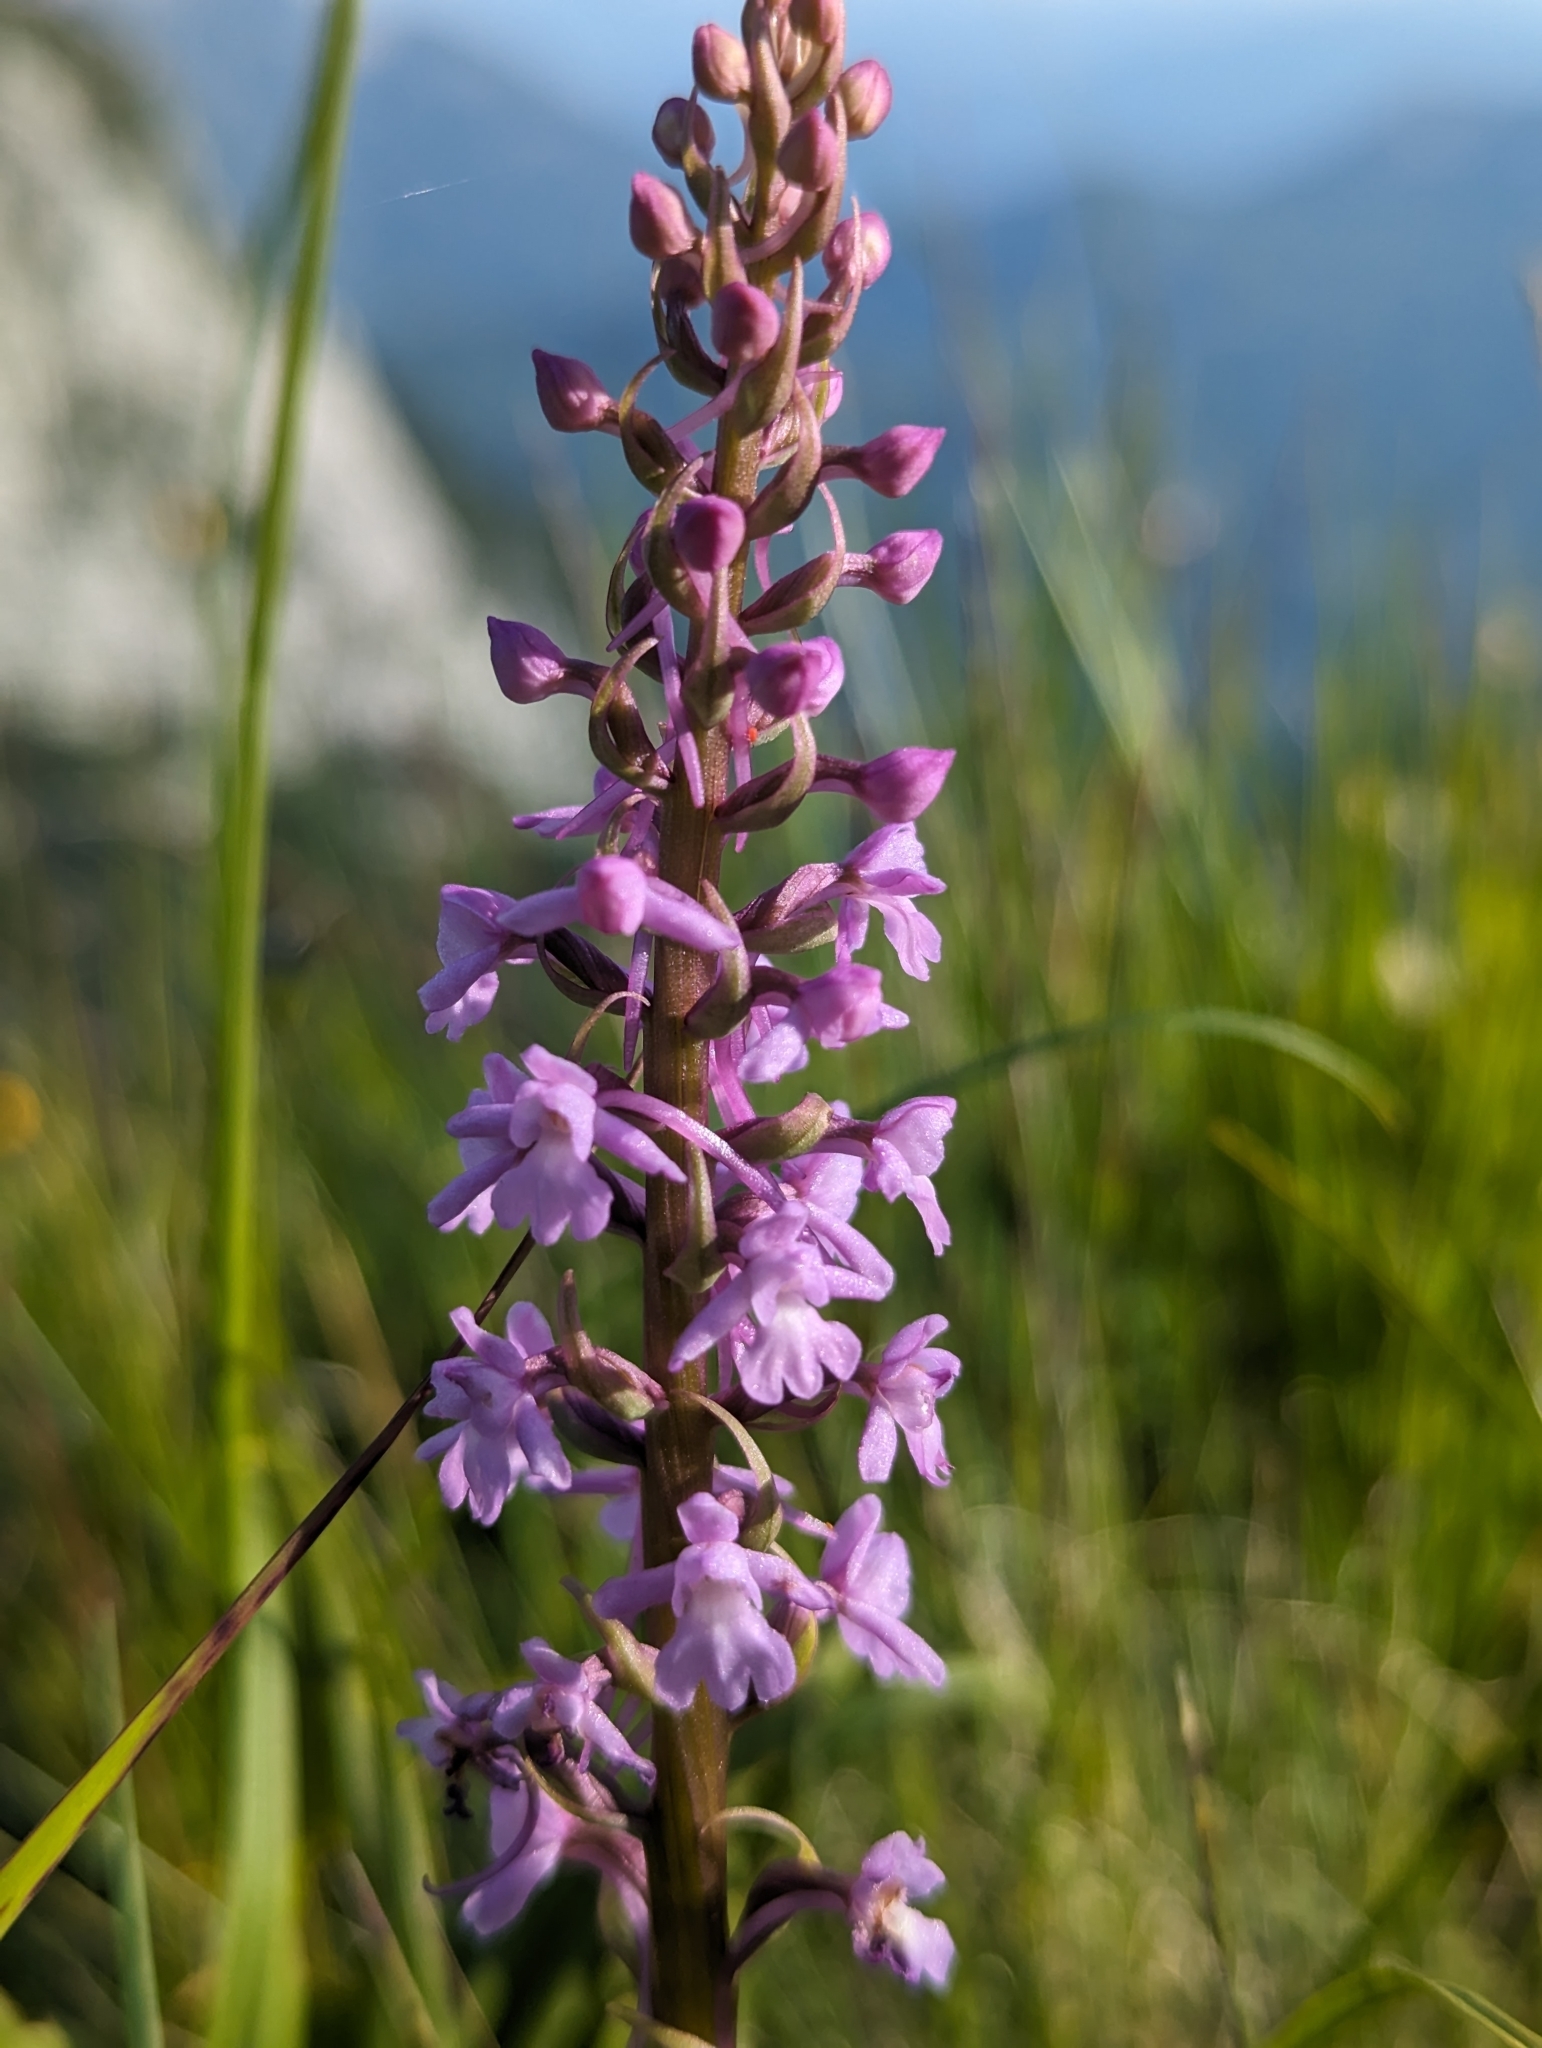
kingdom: Plantae
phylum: Tracheophyta
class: Liliopsida
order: Asparagales
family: Orchidaceae
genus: Gymnadenia
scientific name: Gymnadenia conopsea
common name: Fragrant orchid
